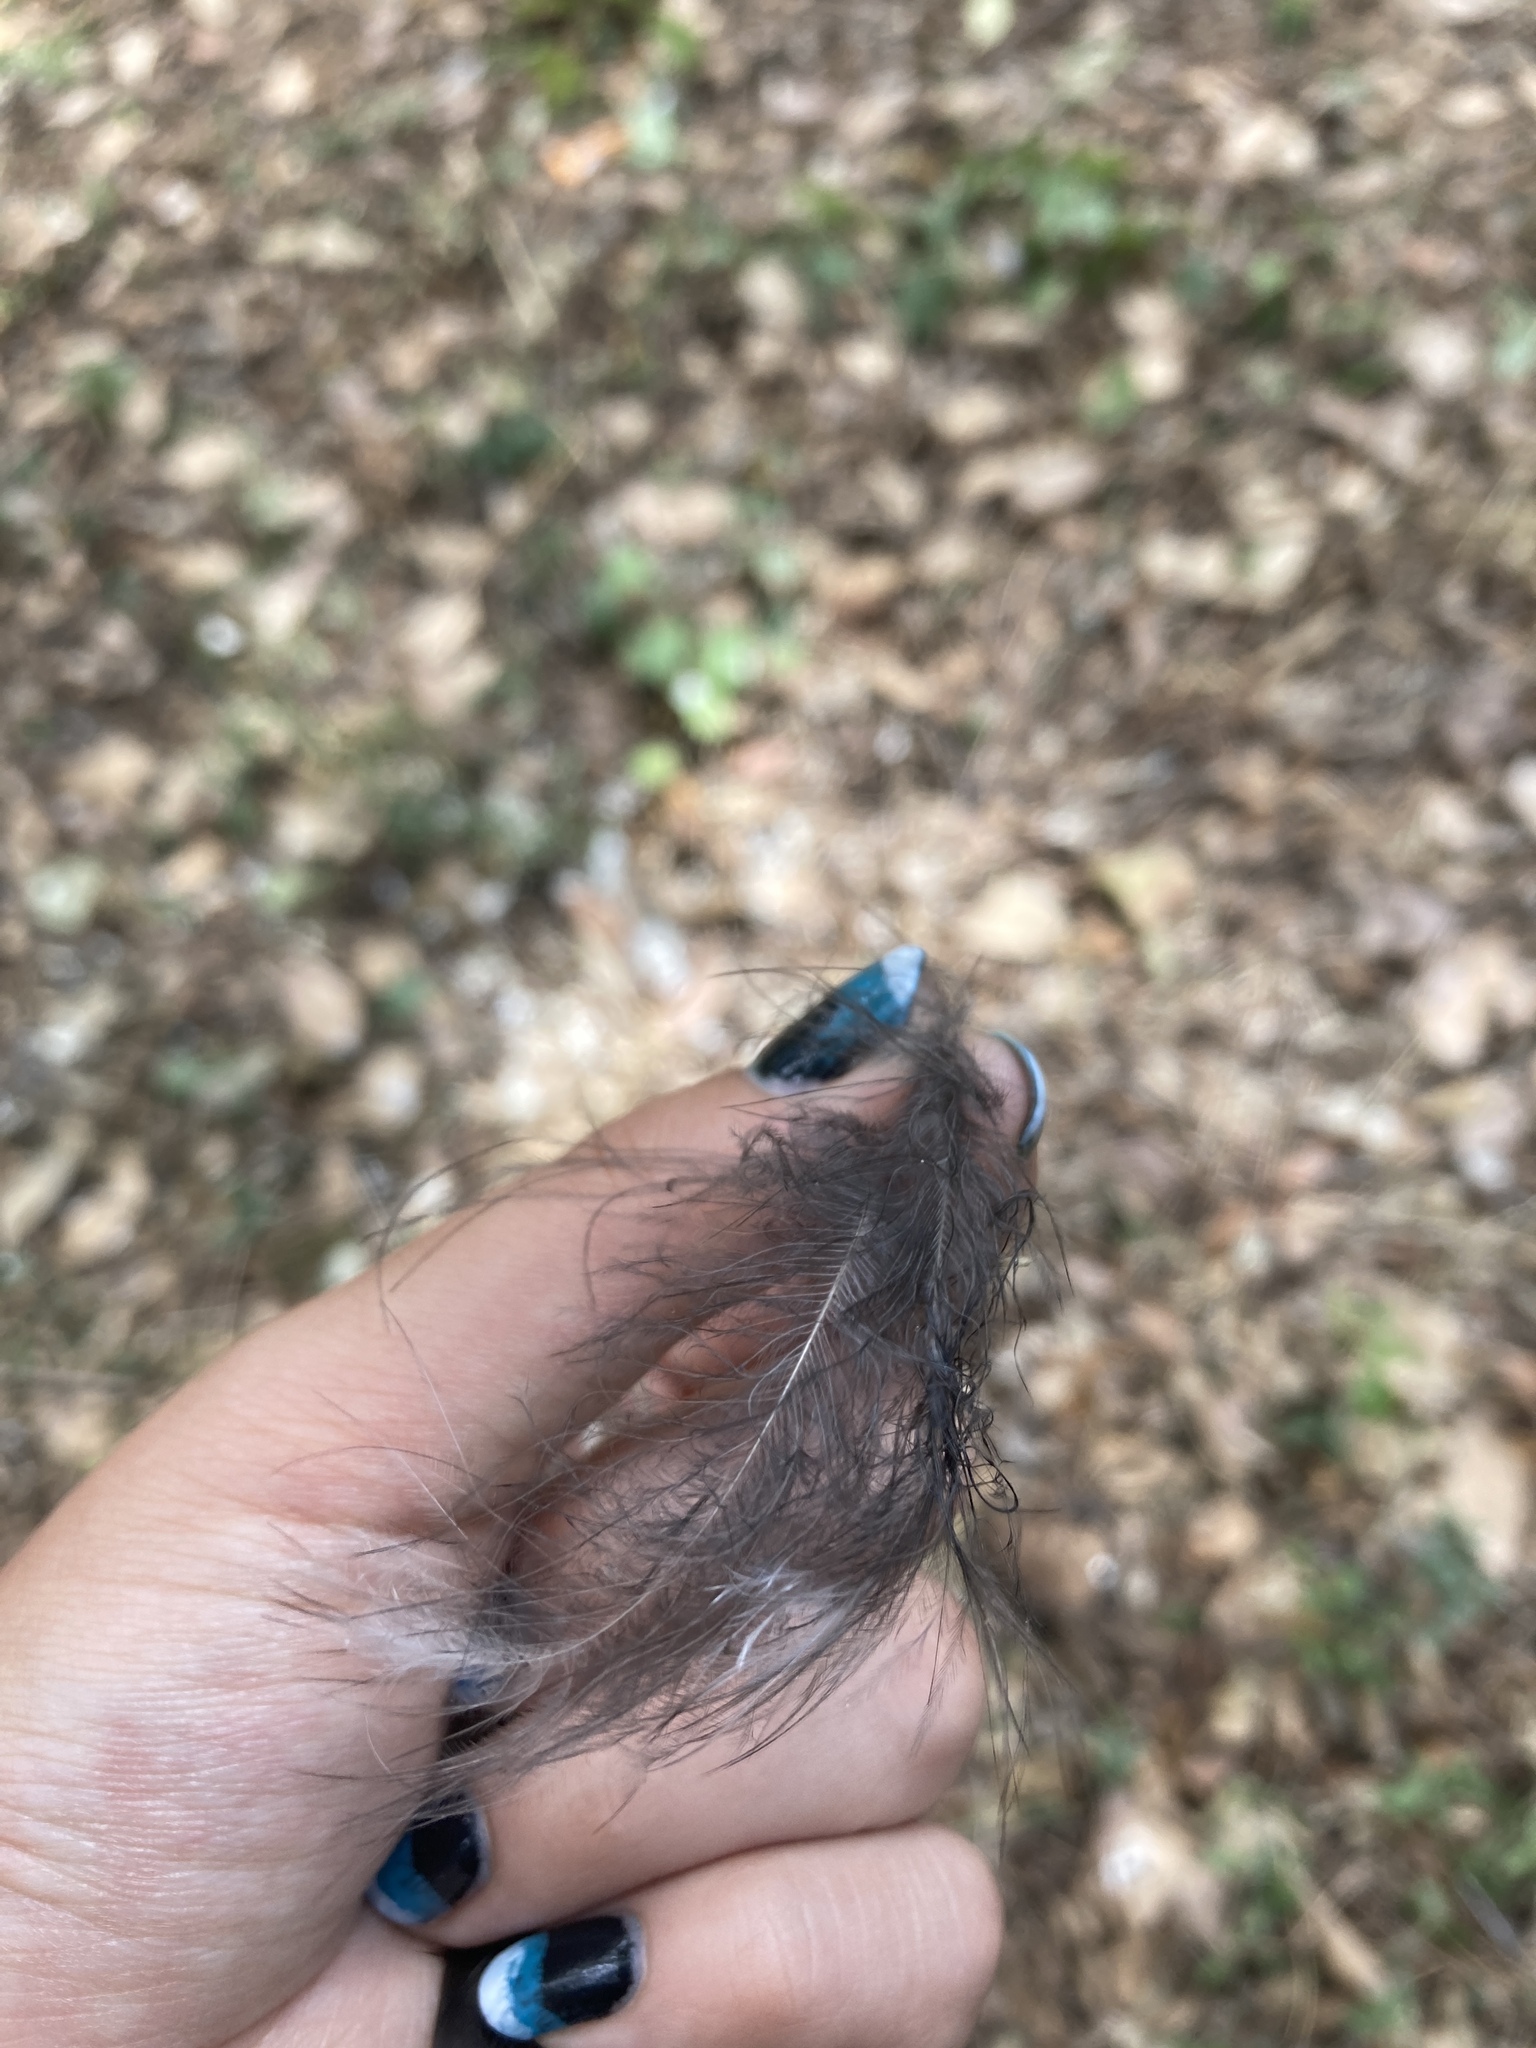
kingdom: Animalia
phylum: Chordata
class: Aves
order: Passeriformes
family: Corvidae
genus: Pica
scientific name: Pica pica
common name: Eurasian magpie
